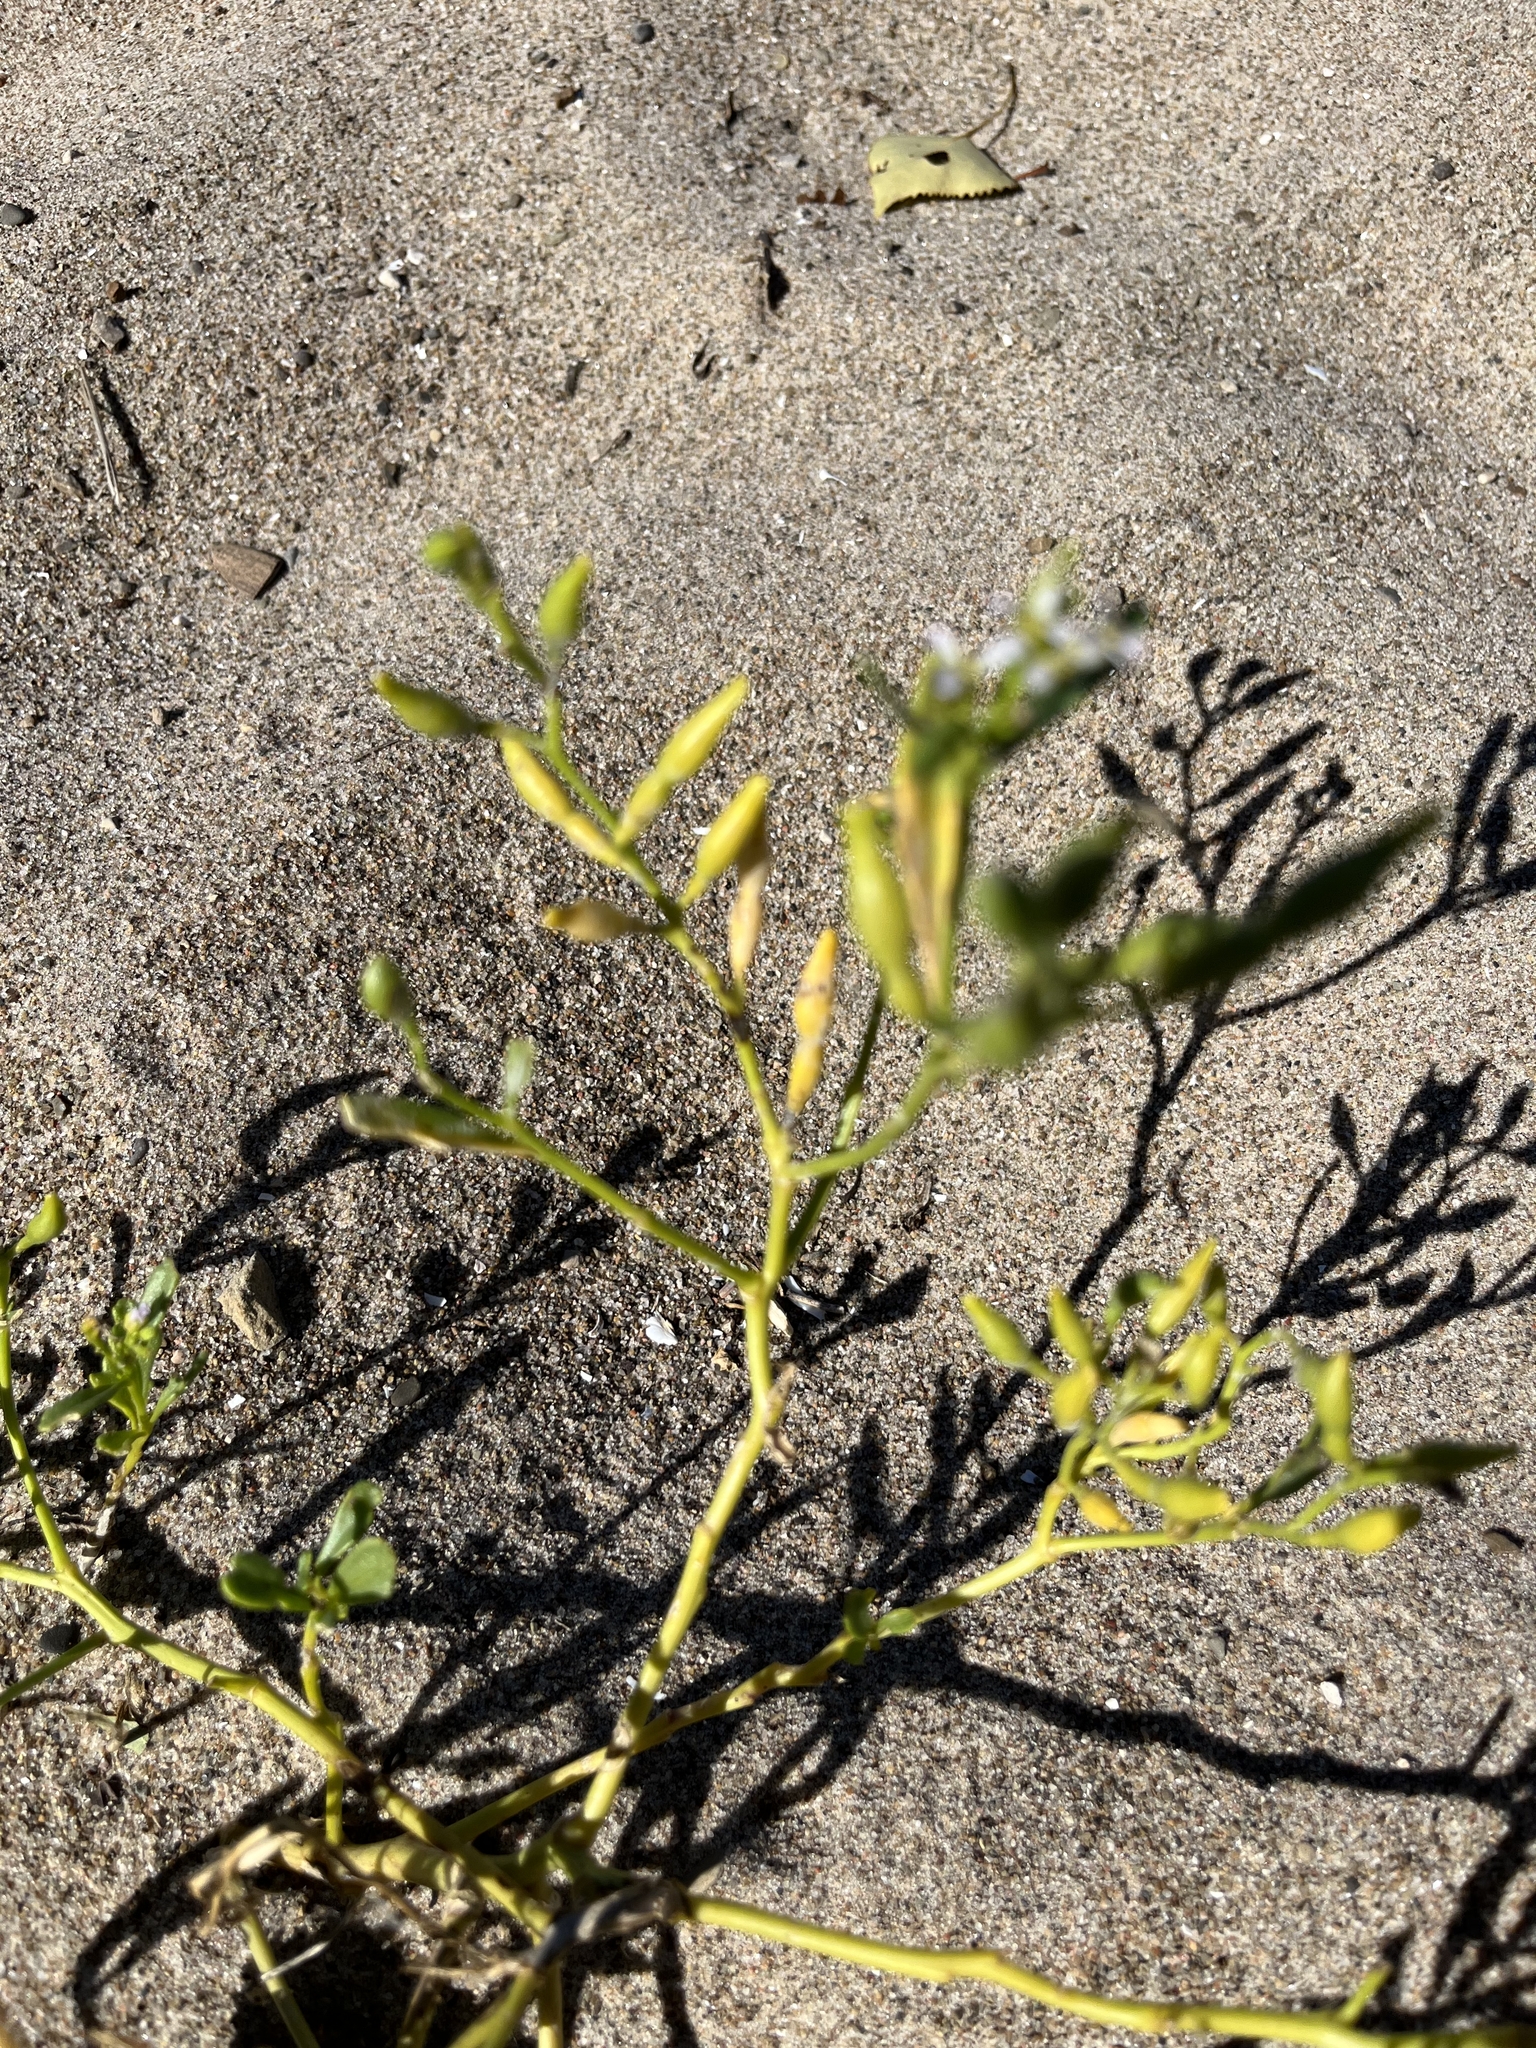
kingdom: Plantae
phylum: Tracheophyta
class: Magnoliopsida
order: Brassicales
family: Brassicaceae
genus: Cakile
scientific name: Cakile edentula
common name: American sea rocket
